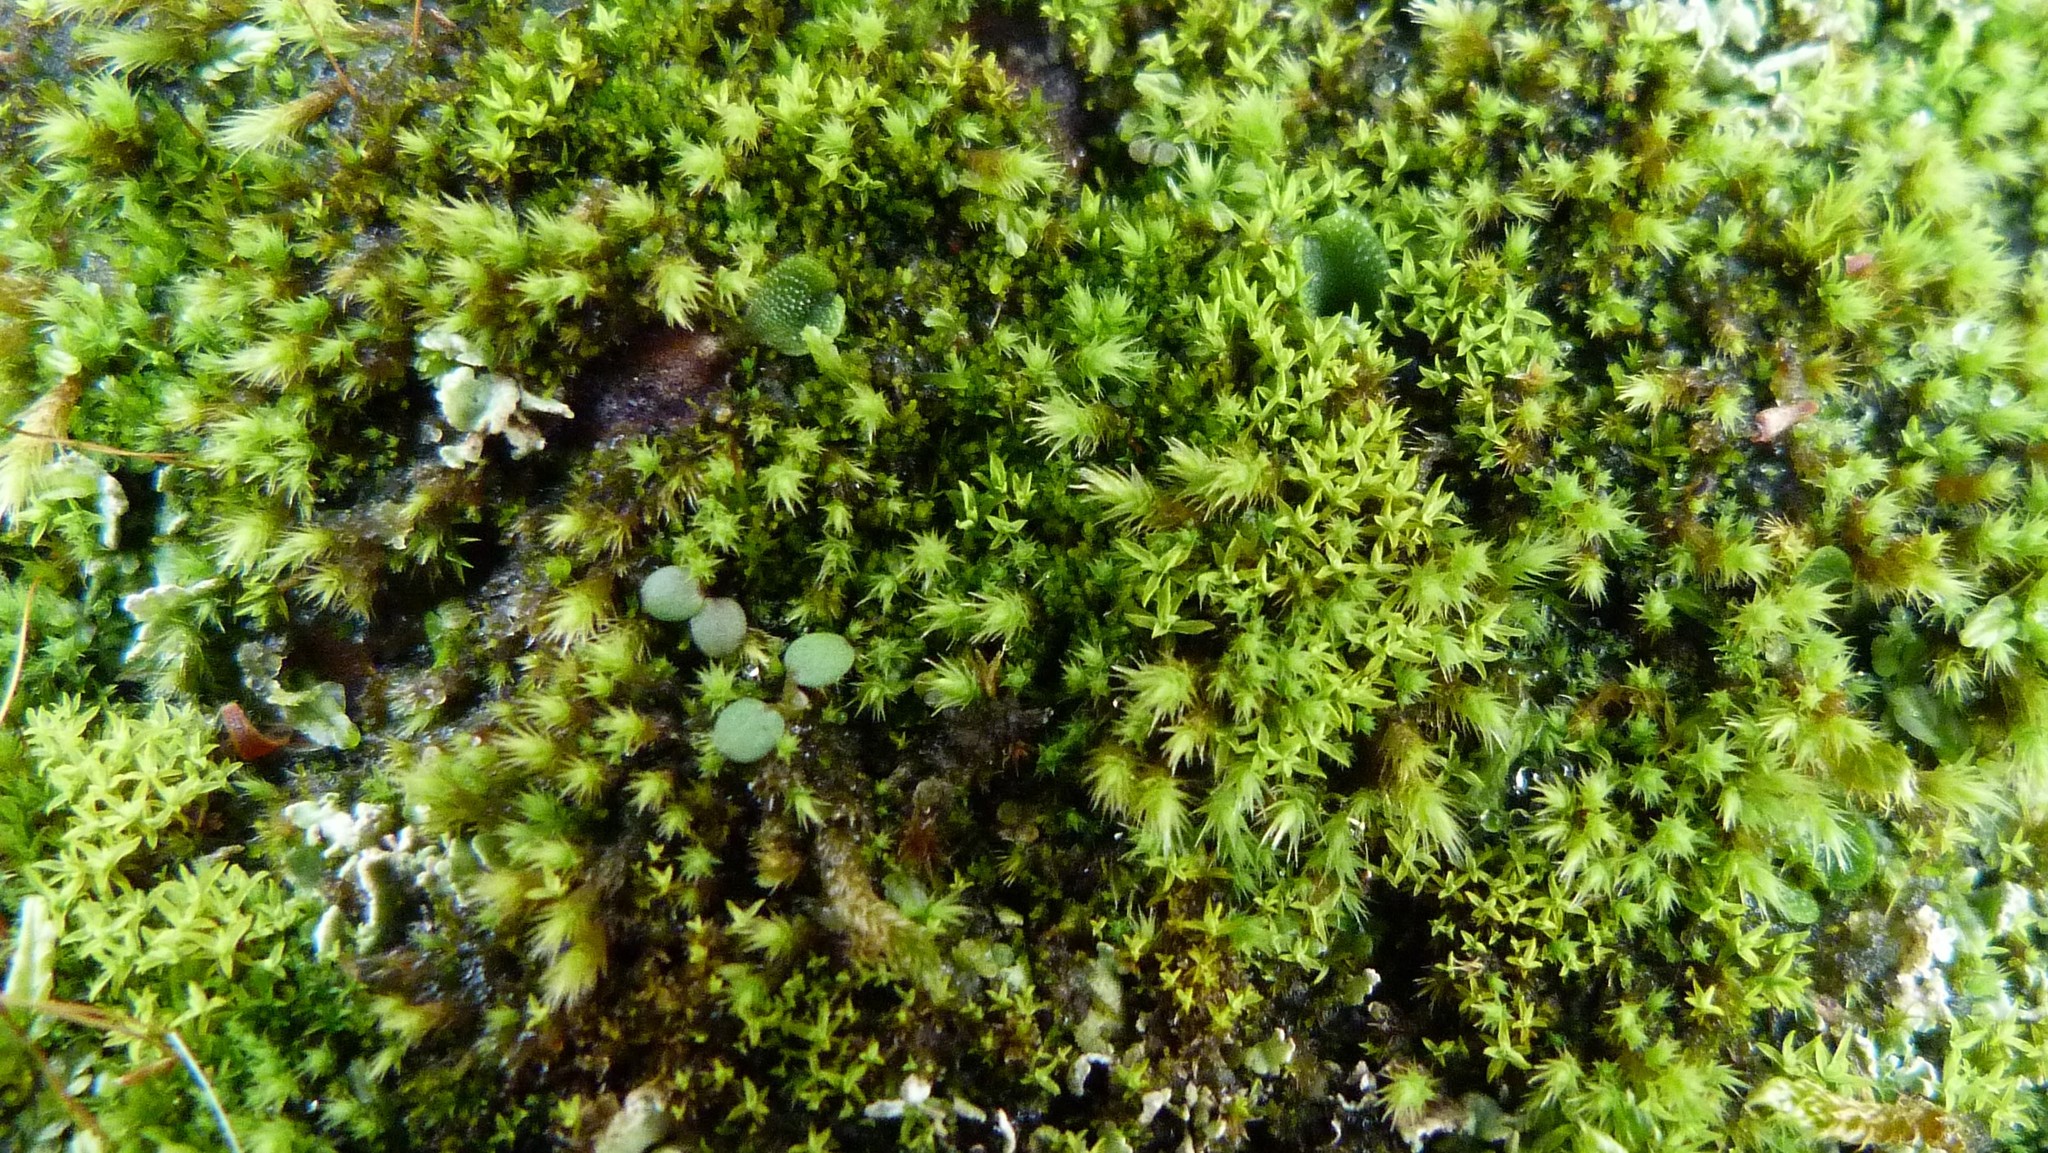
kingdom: Plantae
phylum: Bryophyta
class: Bryopsida
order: Bartramiales
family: Bartramiaceae
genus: Philonotis
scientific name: Philonotis pyriformis
